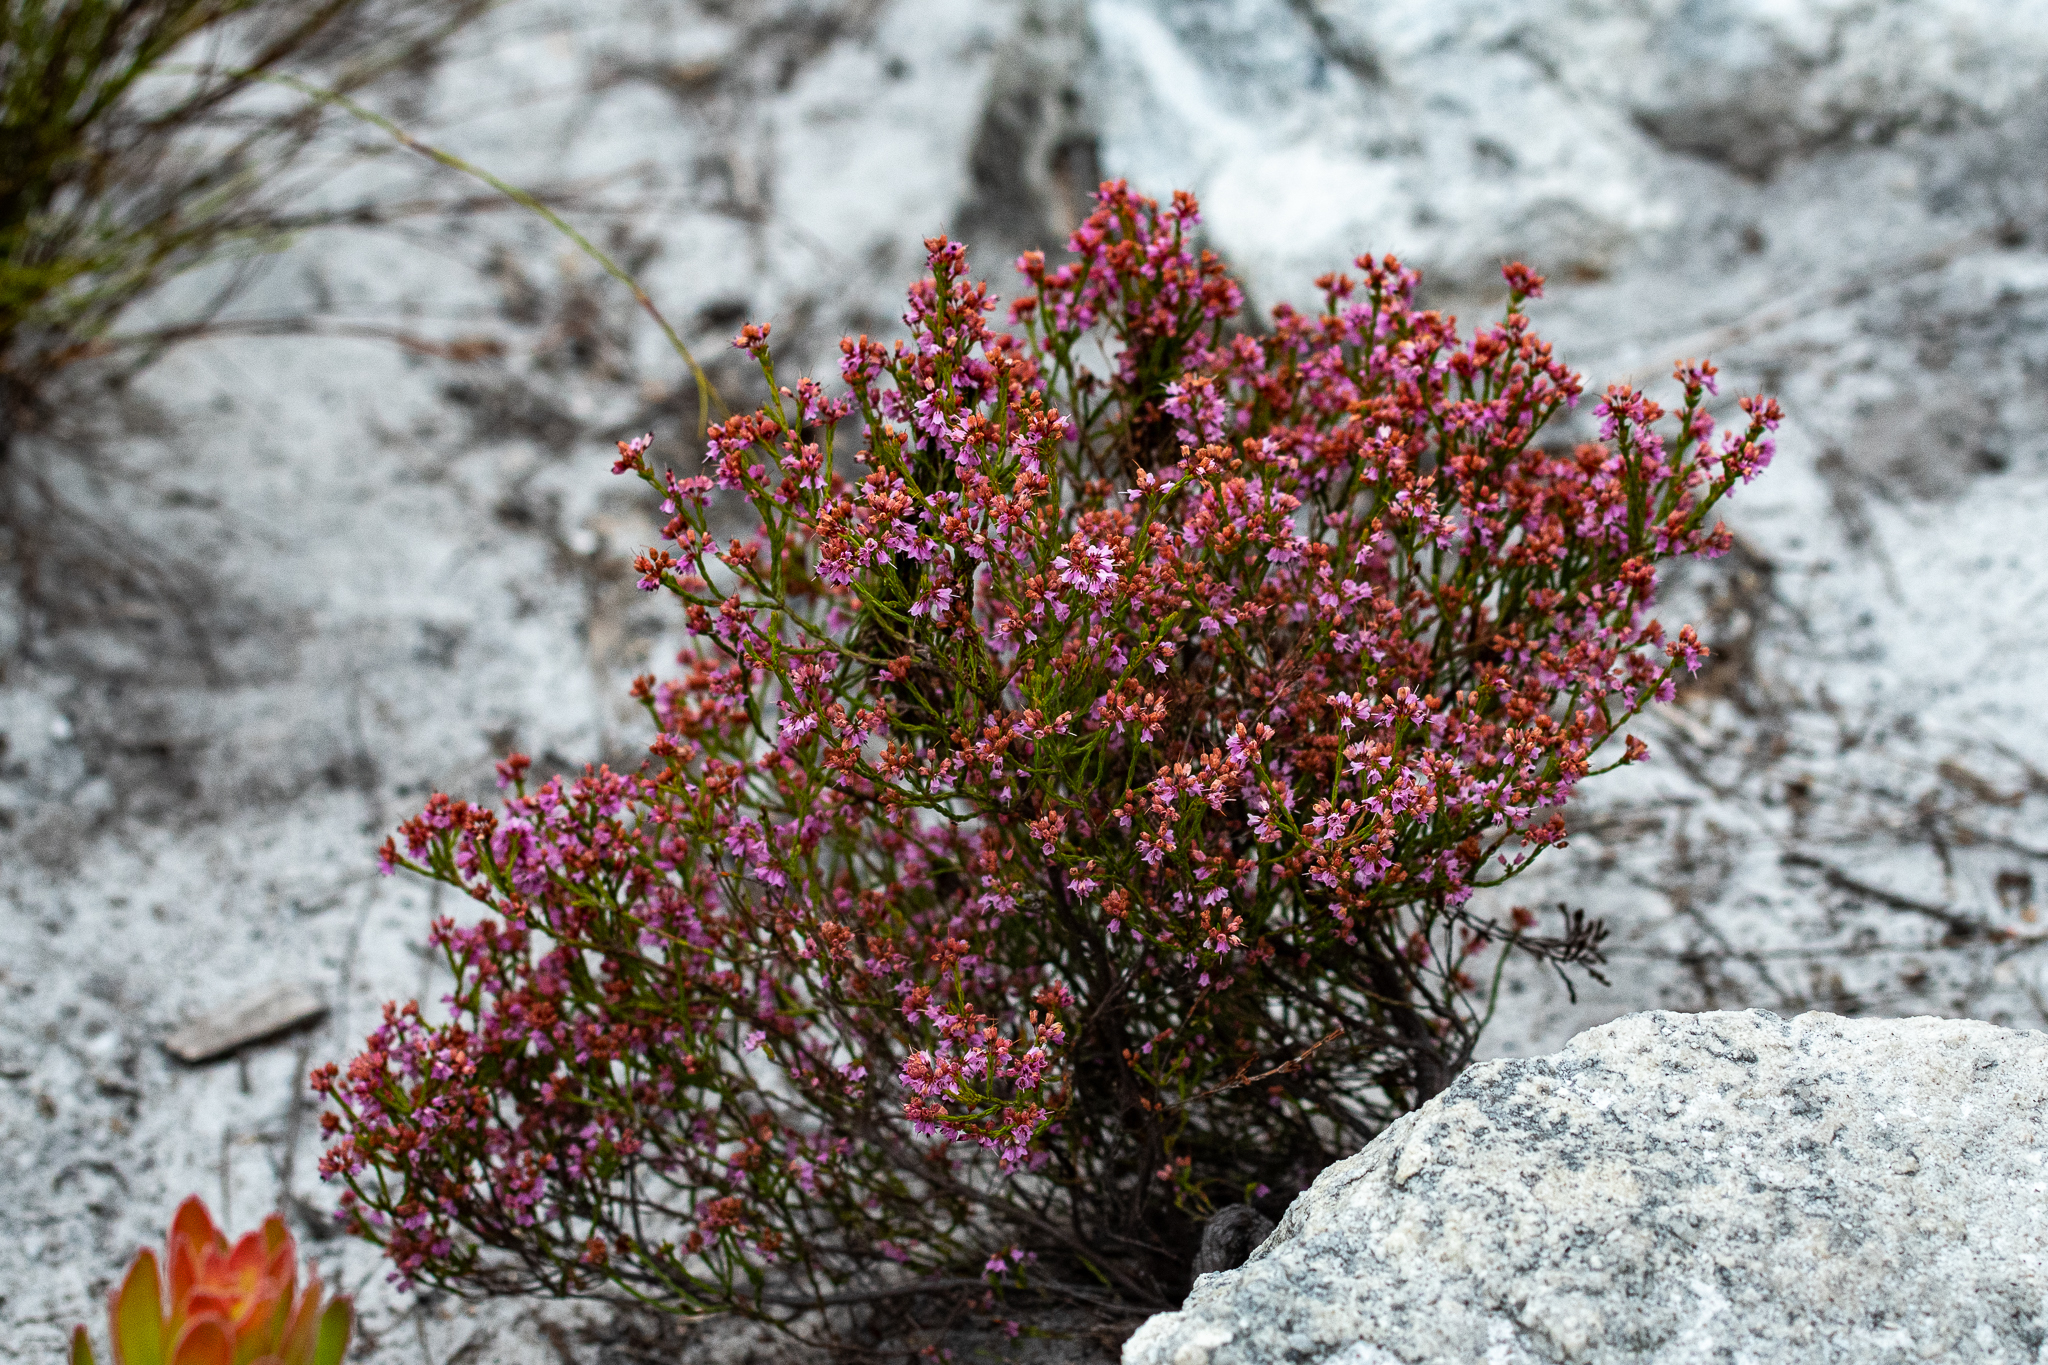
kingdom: Plantae
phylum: Tracheophyta
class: Magnoliopsida
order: Ericales
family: Ericaceae
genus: Erica
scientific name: Erica equisetifolia
